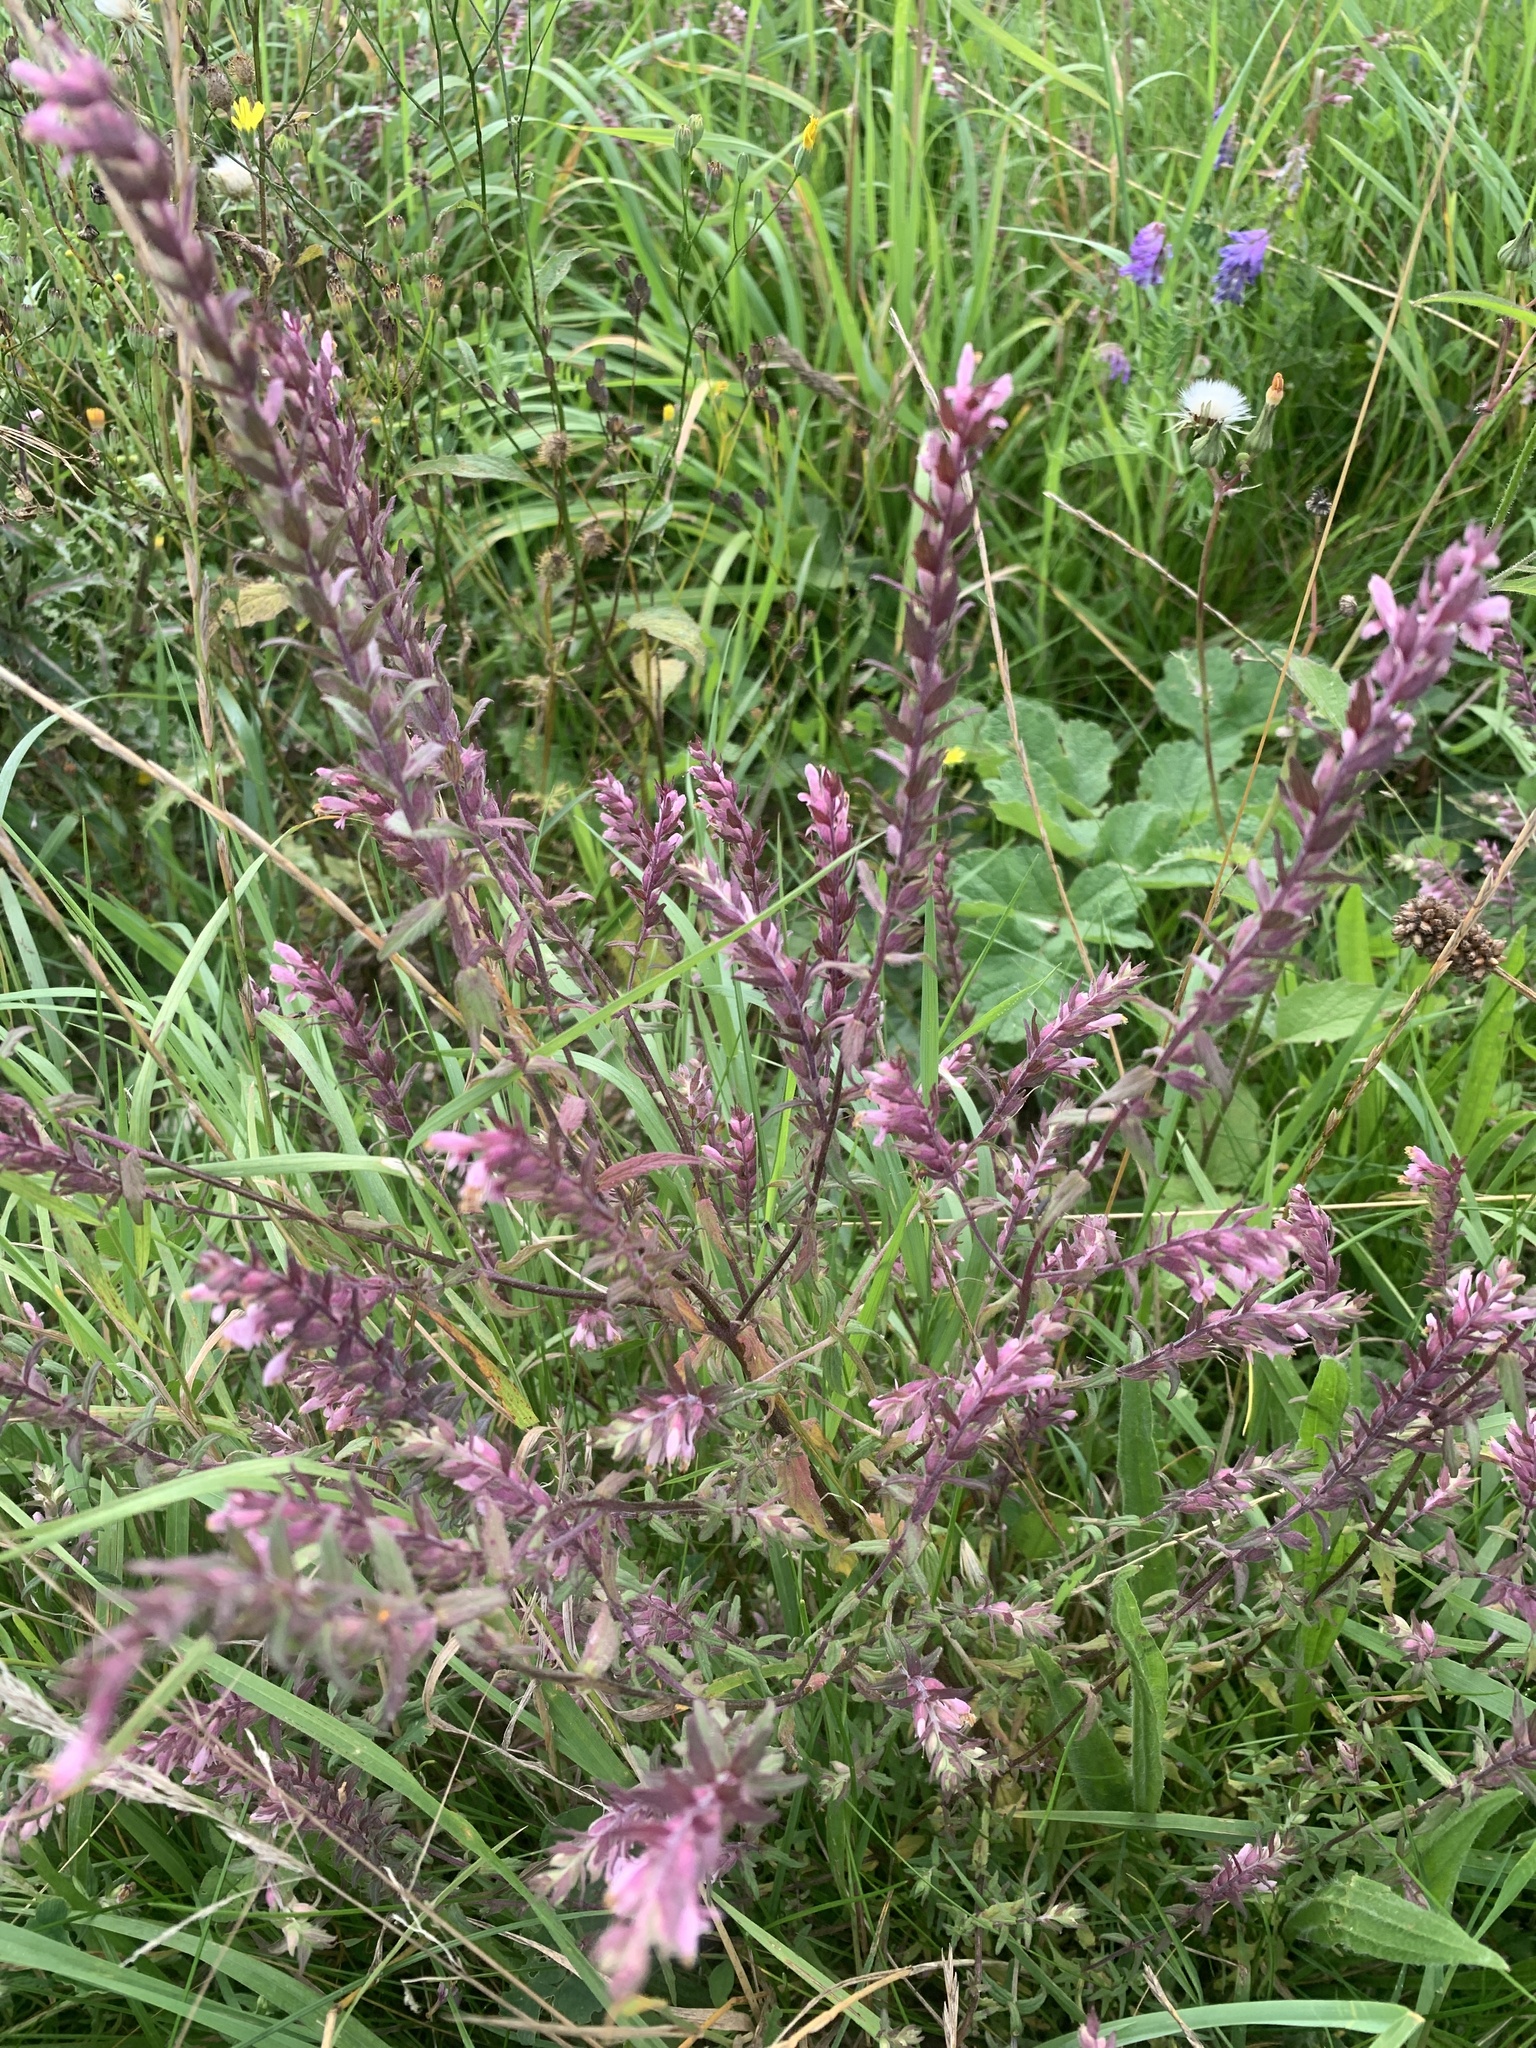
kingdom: Plantae
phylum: Tracheophyta
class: Magnoliopsida
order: Lamiales
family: Orobanchaceae
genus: Odontites
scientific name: Odontites vulgaris
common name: Broomrape
